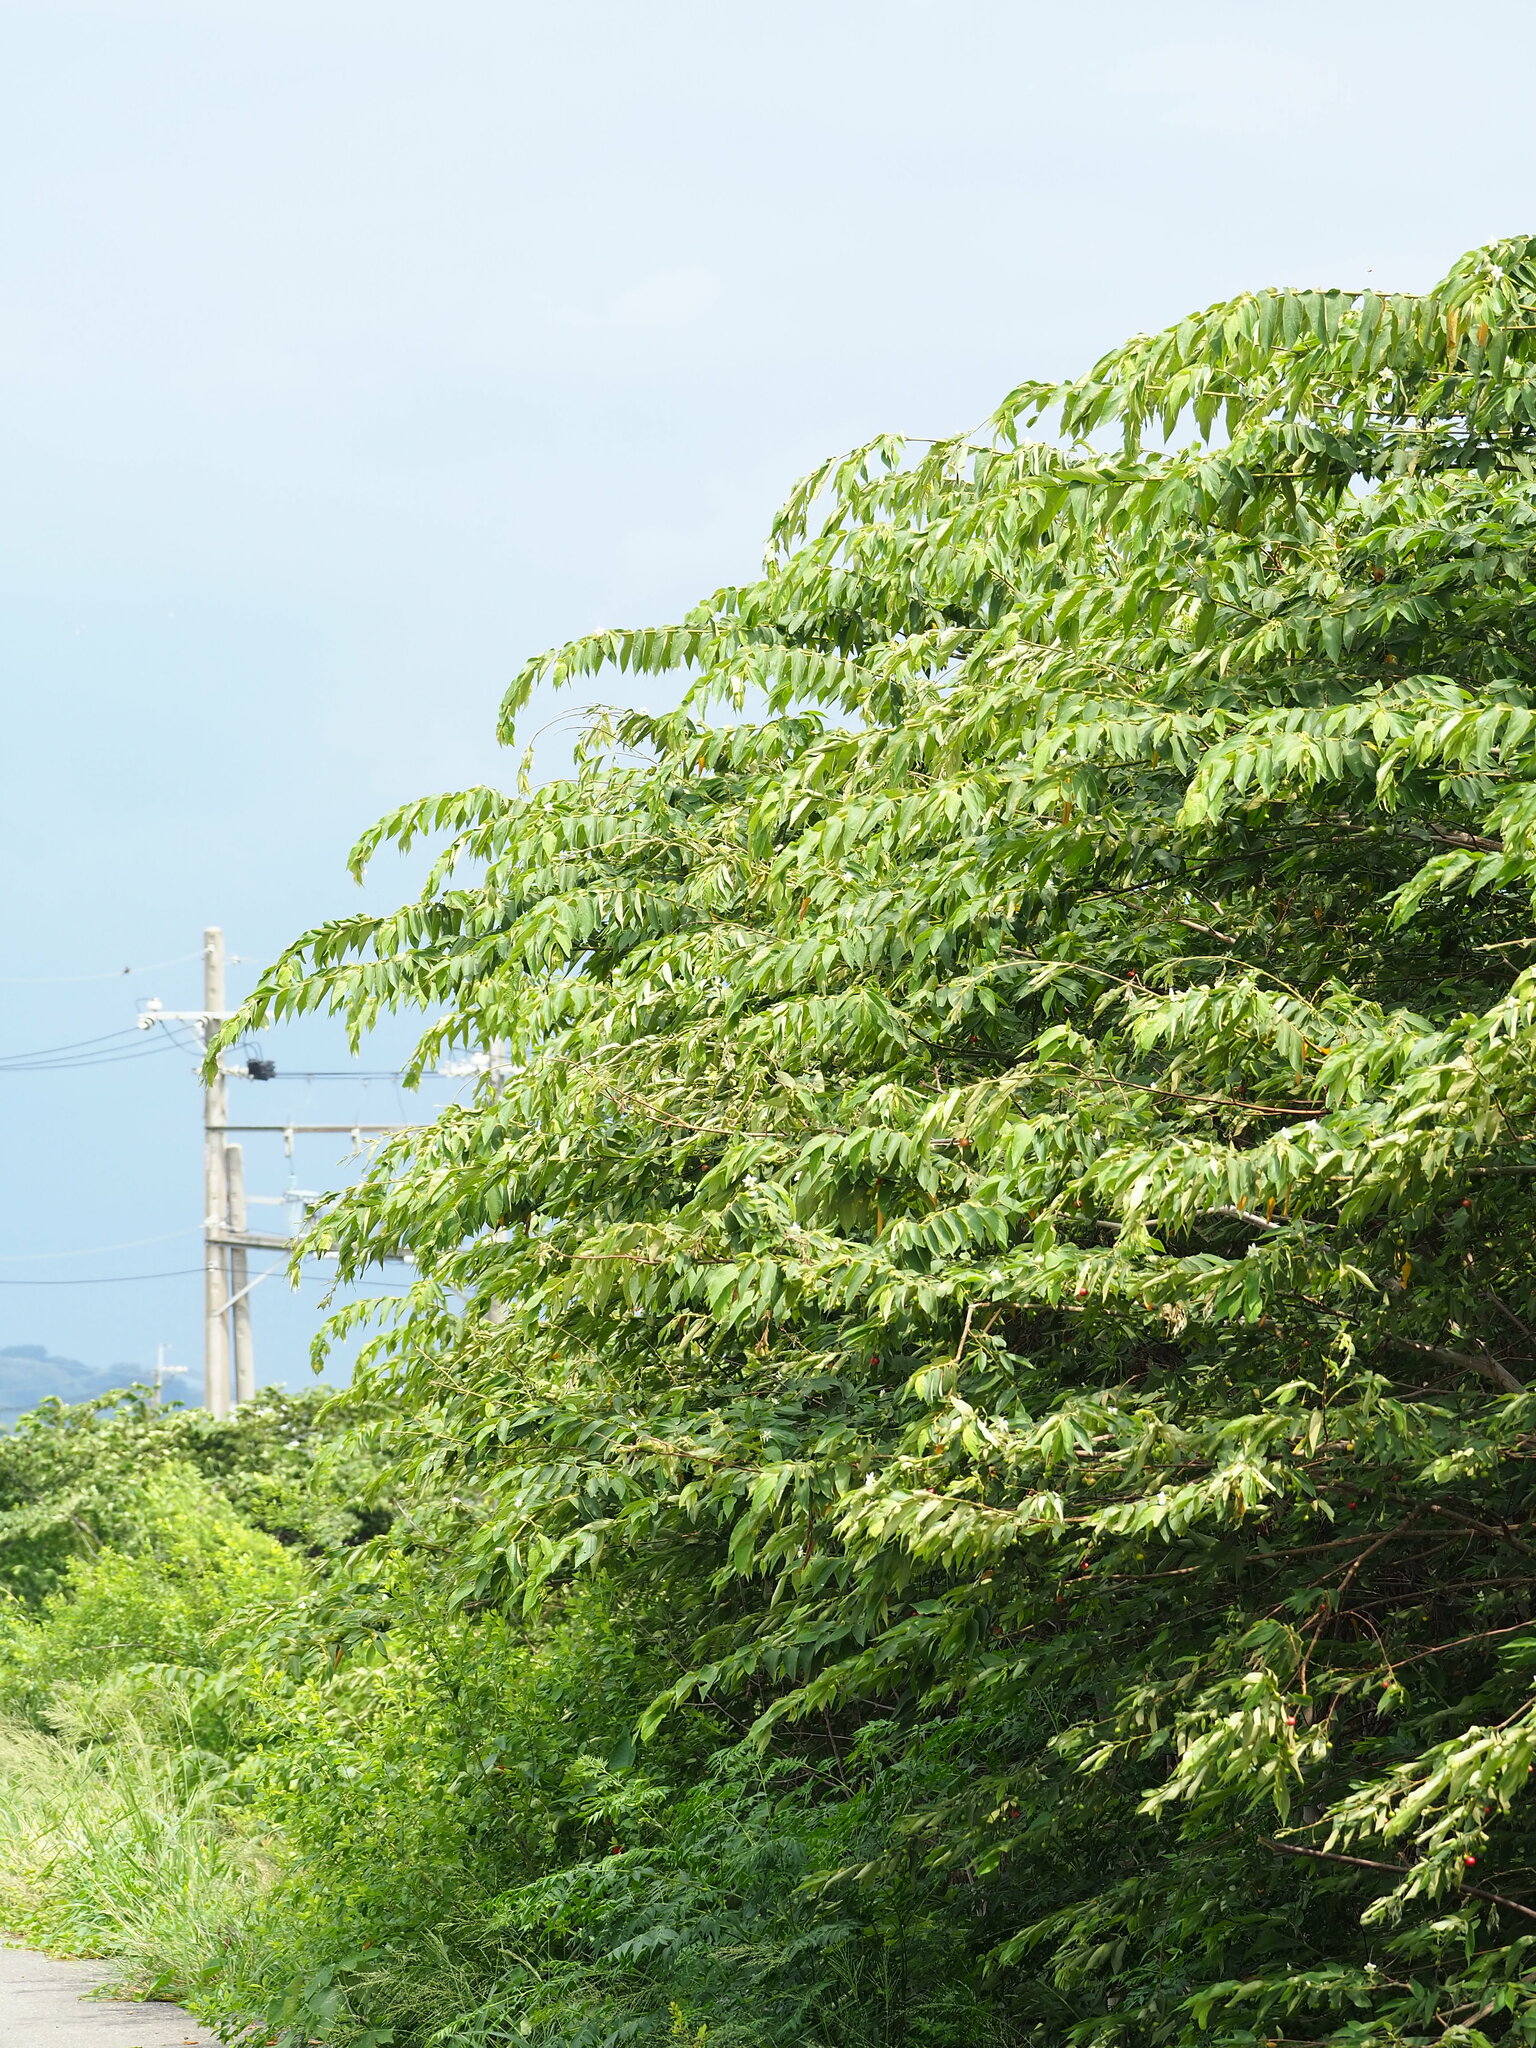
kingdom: Plantae
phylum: Tracheophyta
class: Magnoliopsida
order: Malvales
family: Muntingiaceae
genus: Muntingia
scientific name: Muntingia calabura
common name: Strawberrytree
